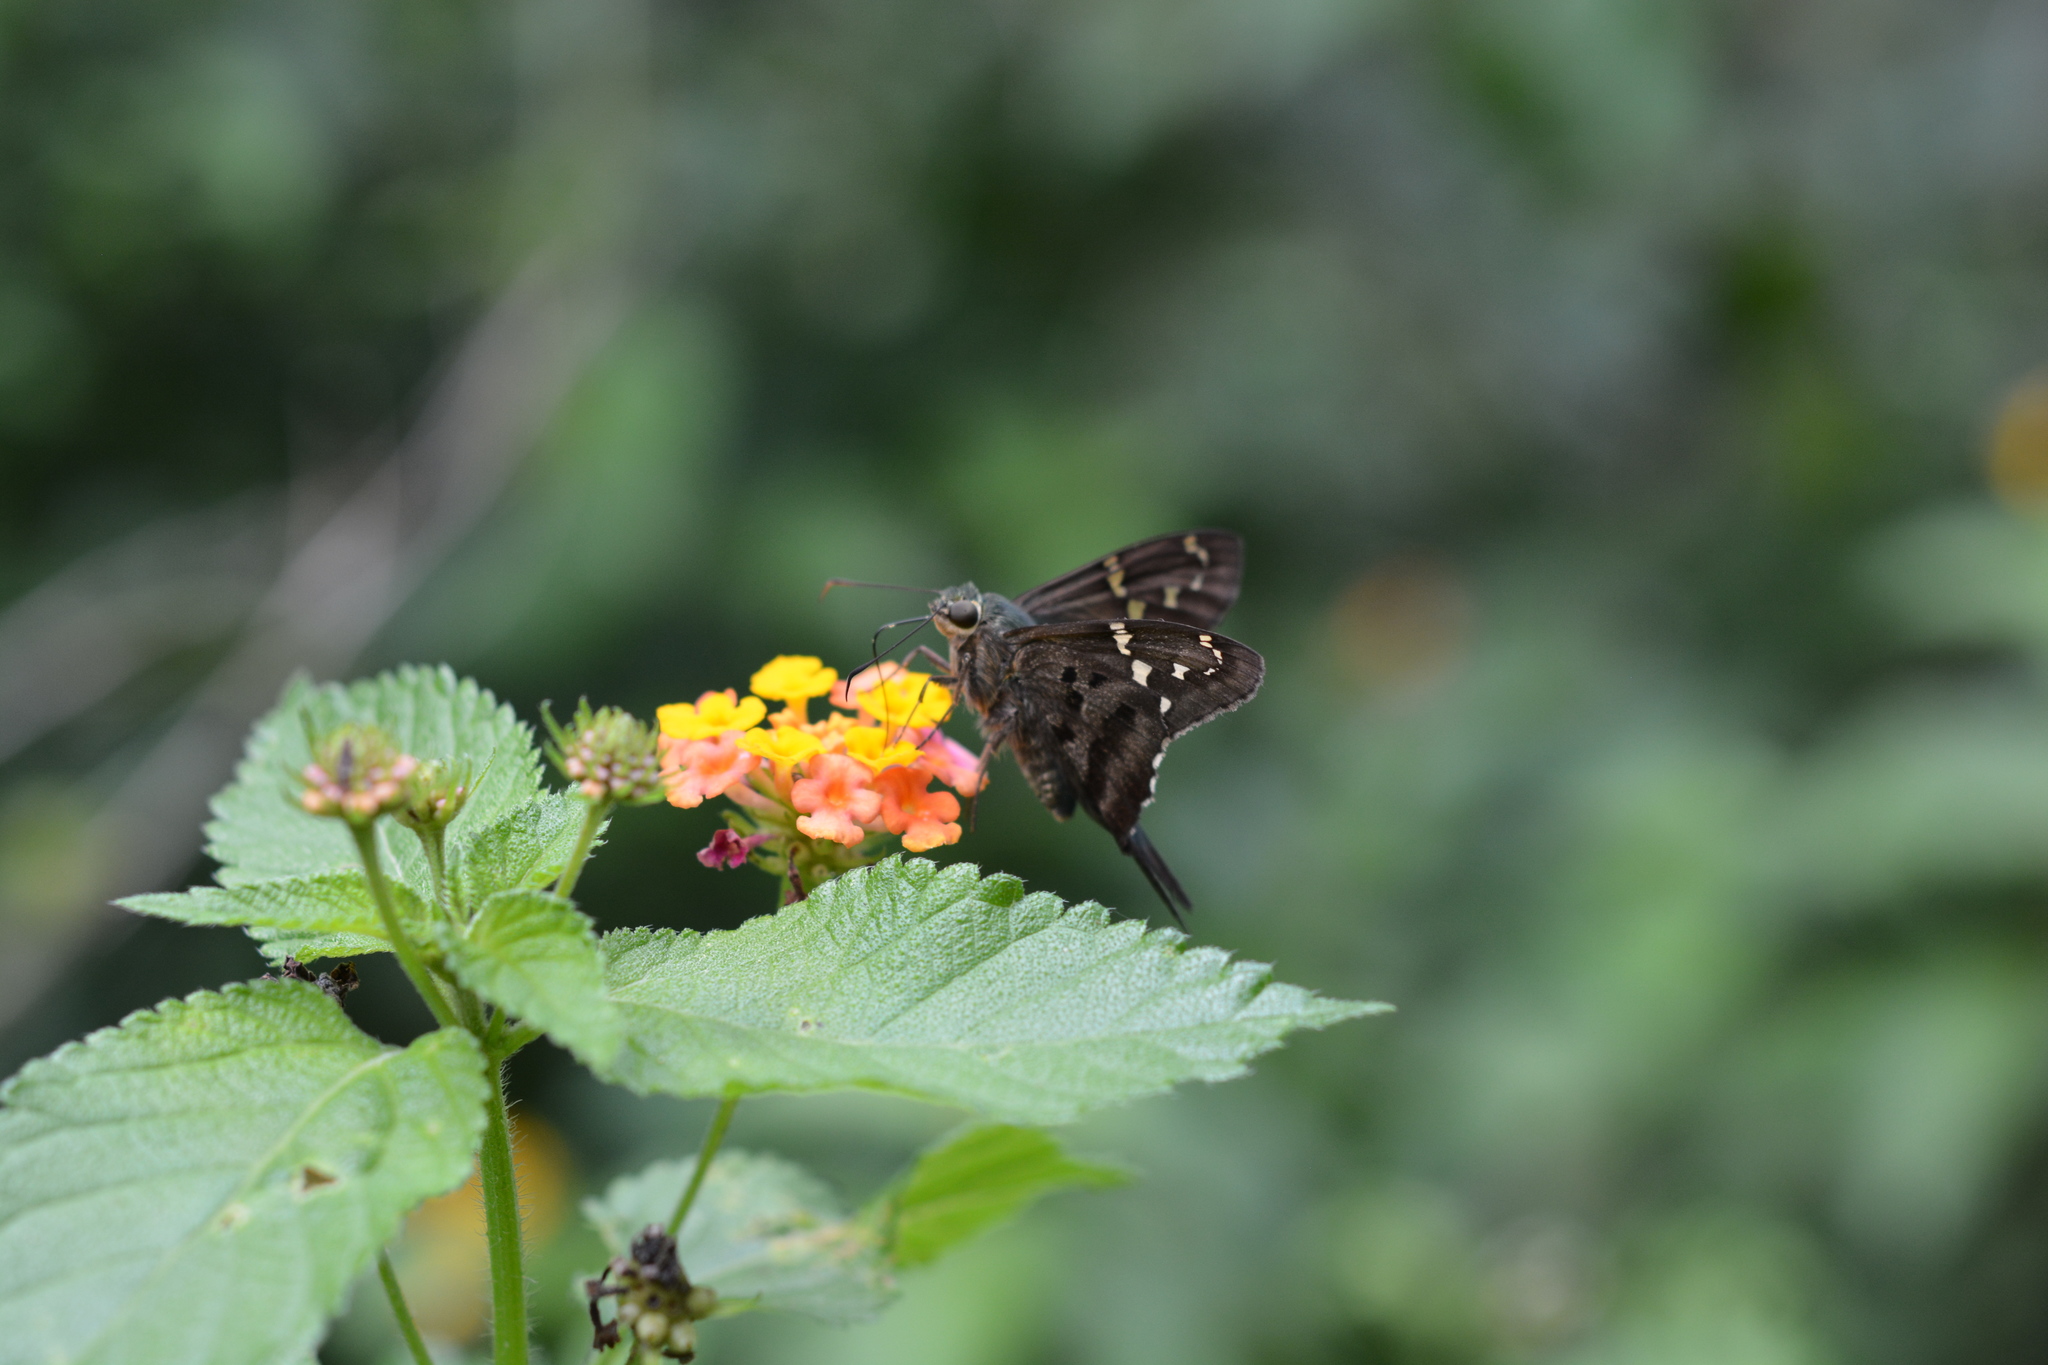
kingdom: Animalia
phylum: Arthropoda
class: Insecta
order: Lepidoptera
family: Hesperiidae
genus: Urbanus
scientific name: Urbanus proteus
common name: Long-tailed skipper
